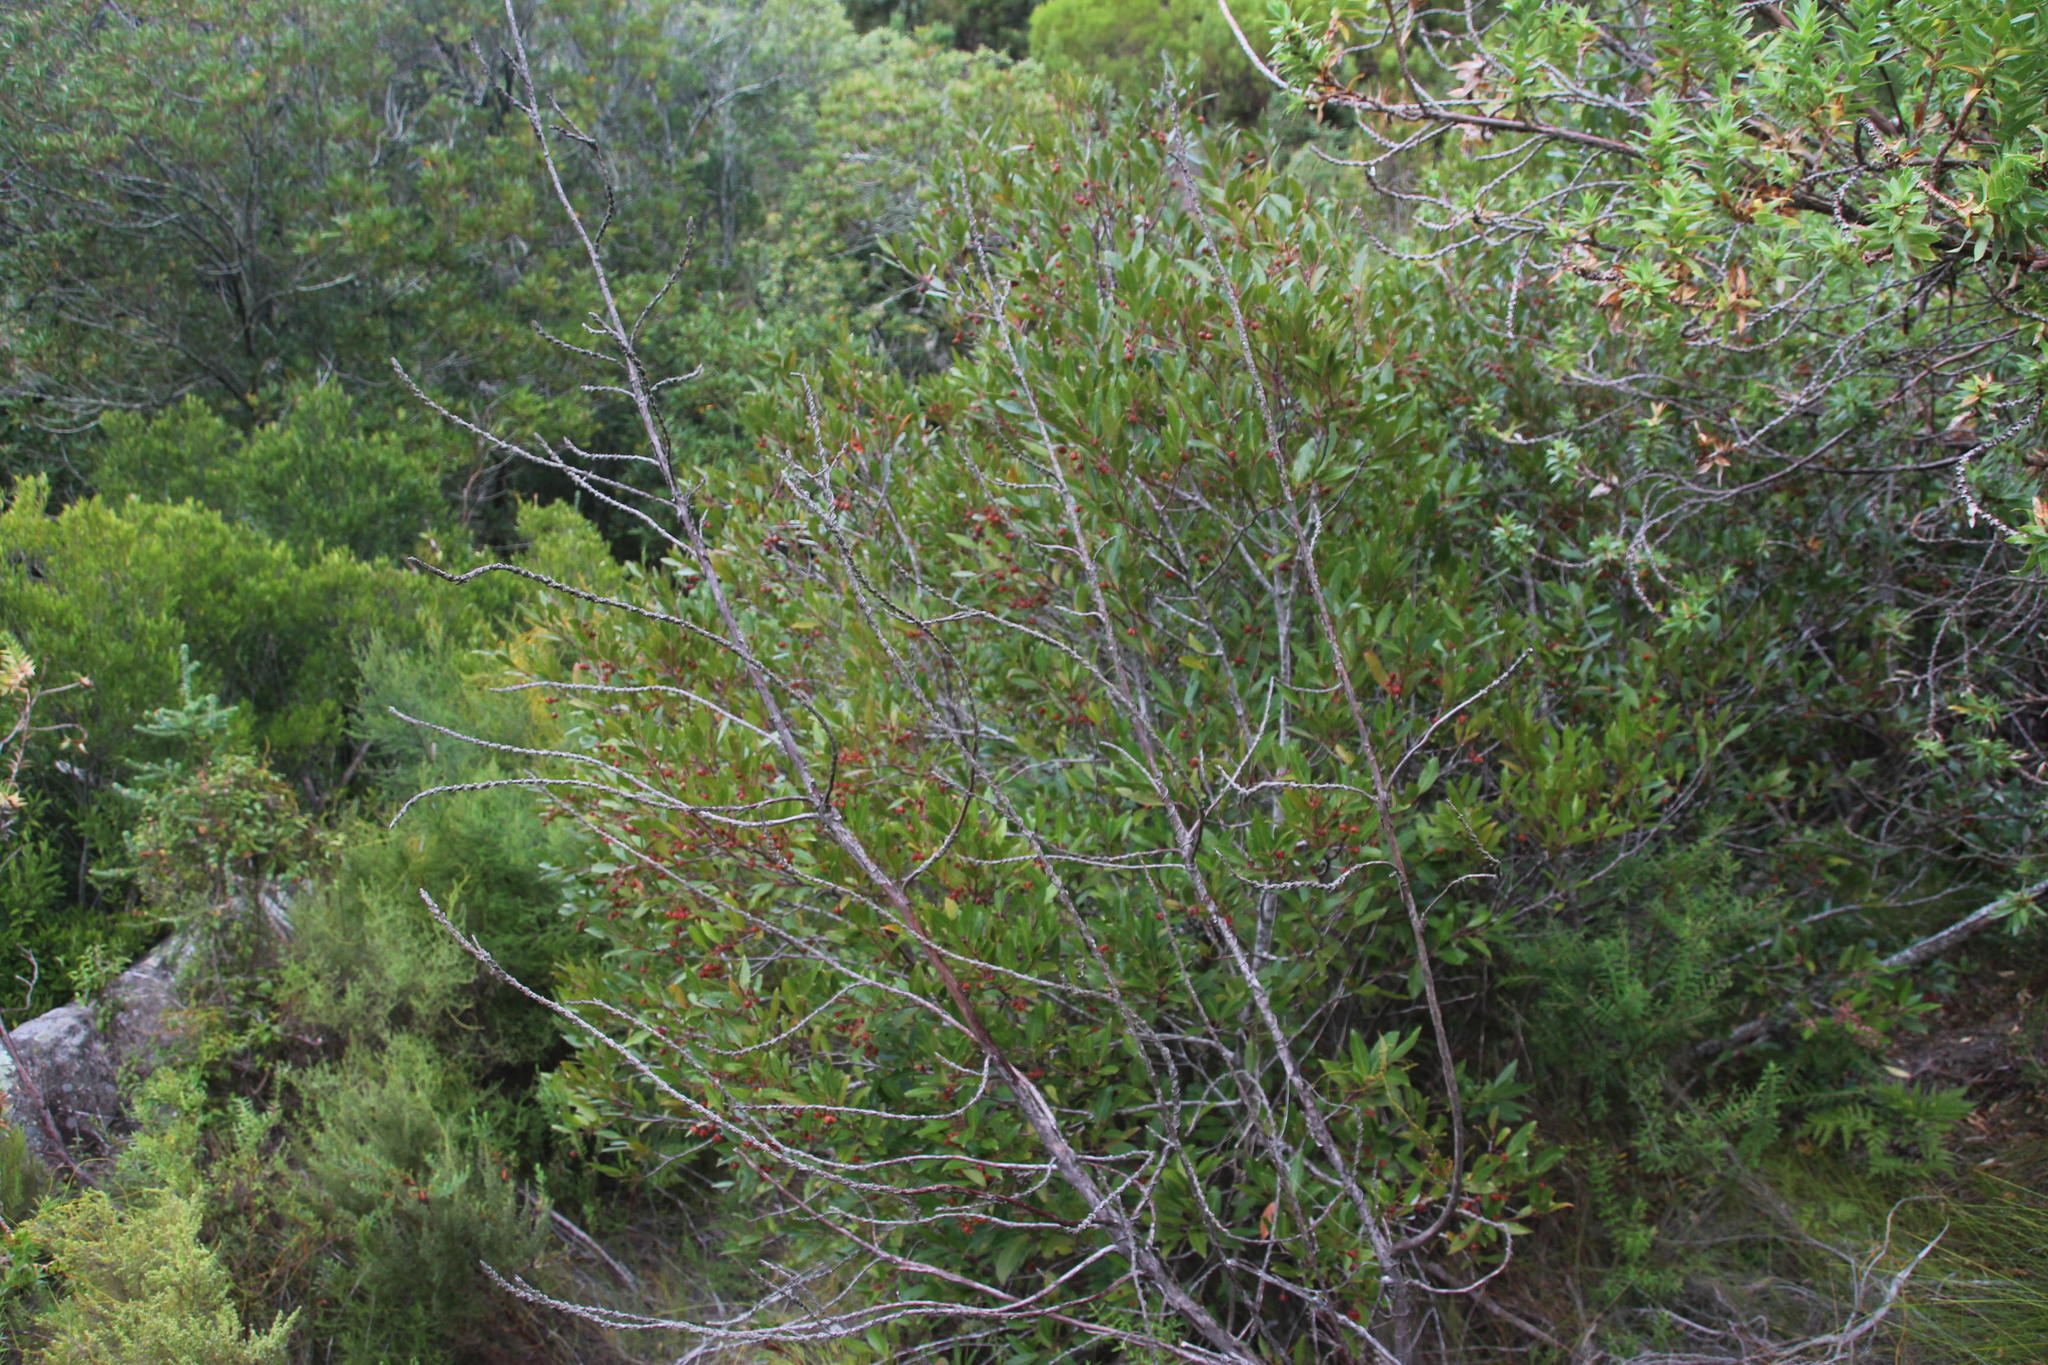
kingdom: Plantae
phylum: Tracheophyta
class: Magnoliopsida
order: Celastrales
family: Celastraceae
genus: Pterocelastrus
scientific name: Pterocelastrus rostratus
